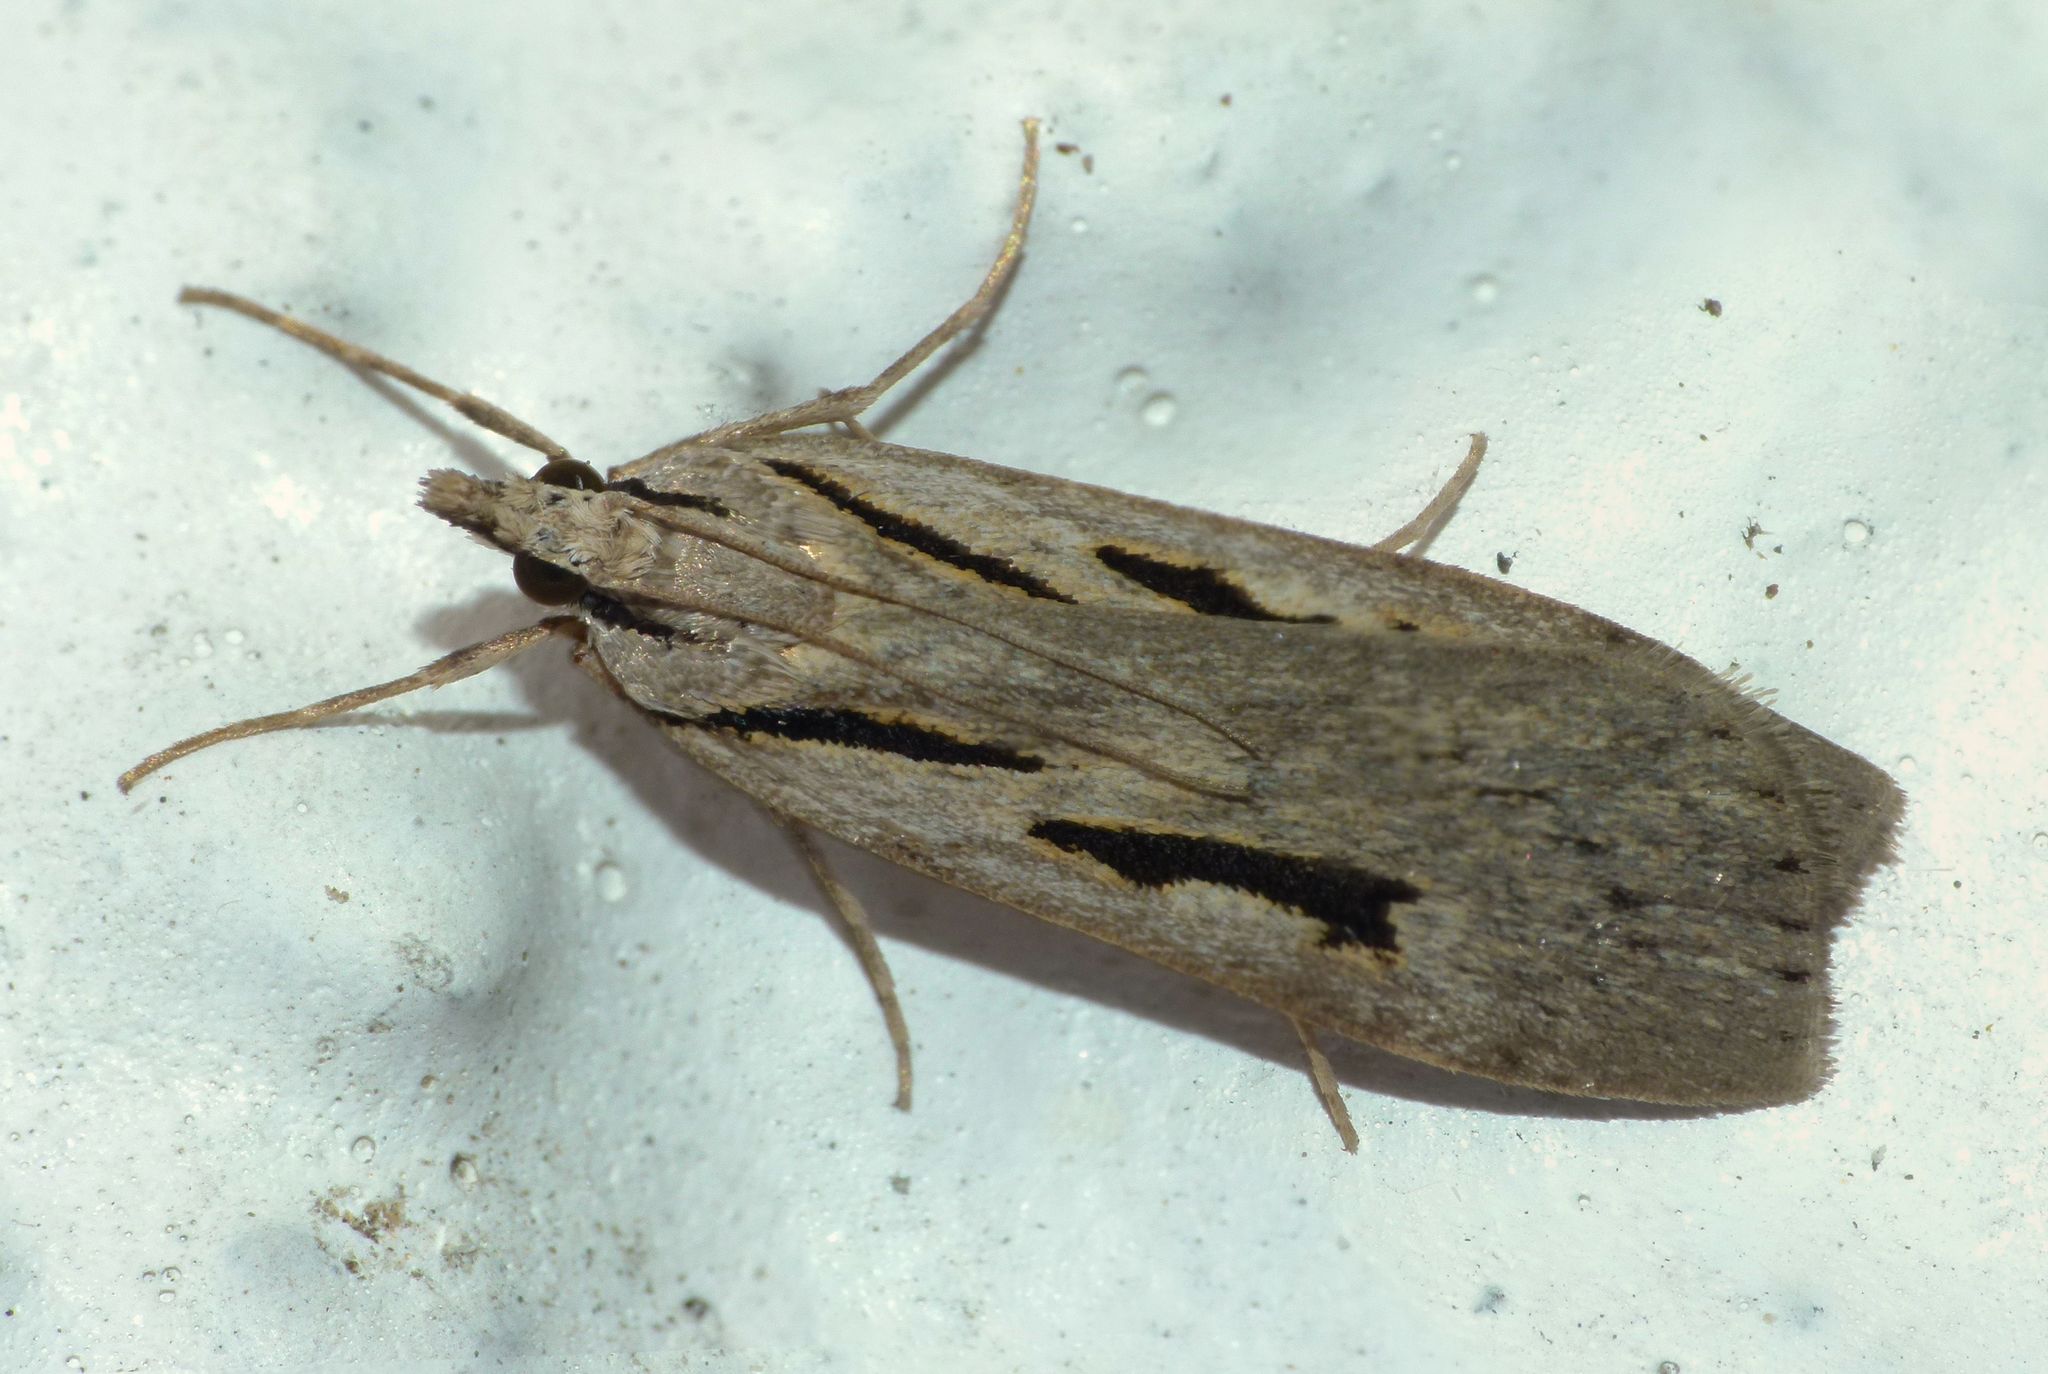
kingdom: Animalia
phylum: Arthropoda
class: Insecta
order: Lepidoptera
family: Crambidae
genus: Scoparia
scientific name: Scoparia rotuellus
